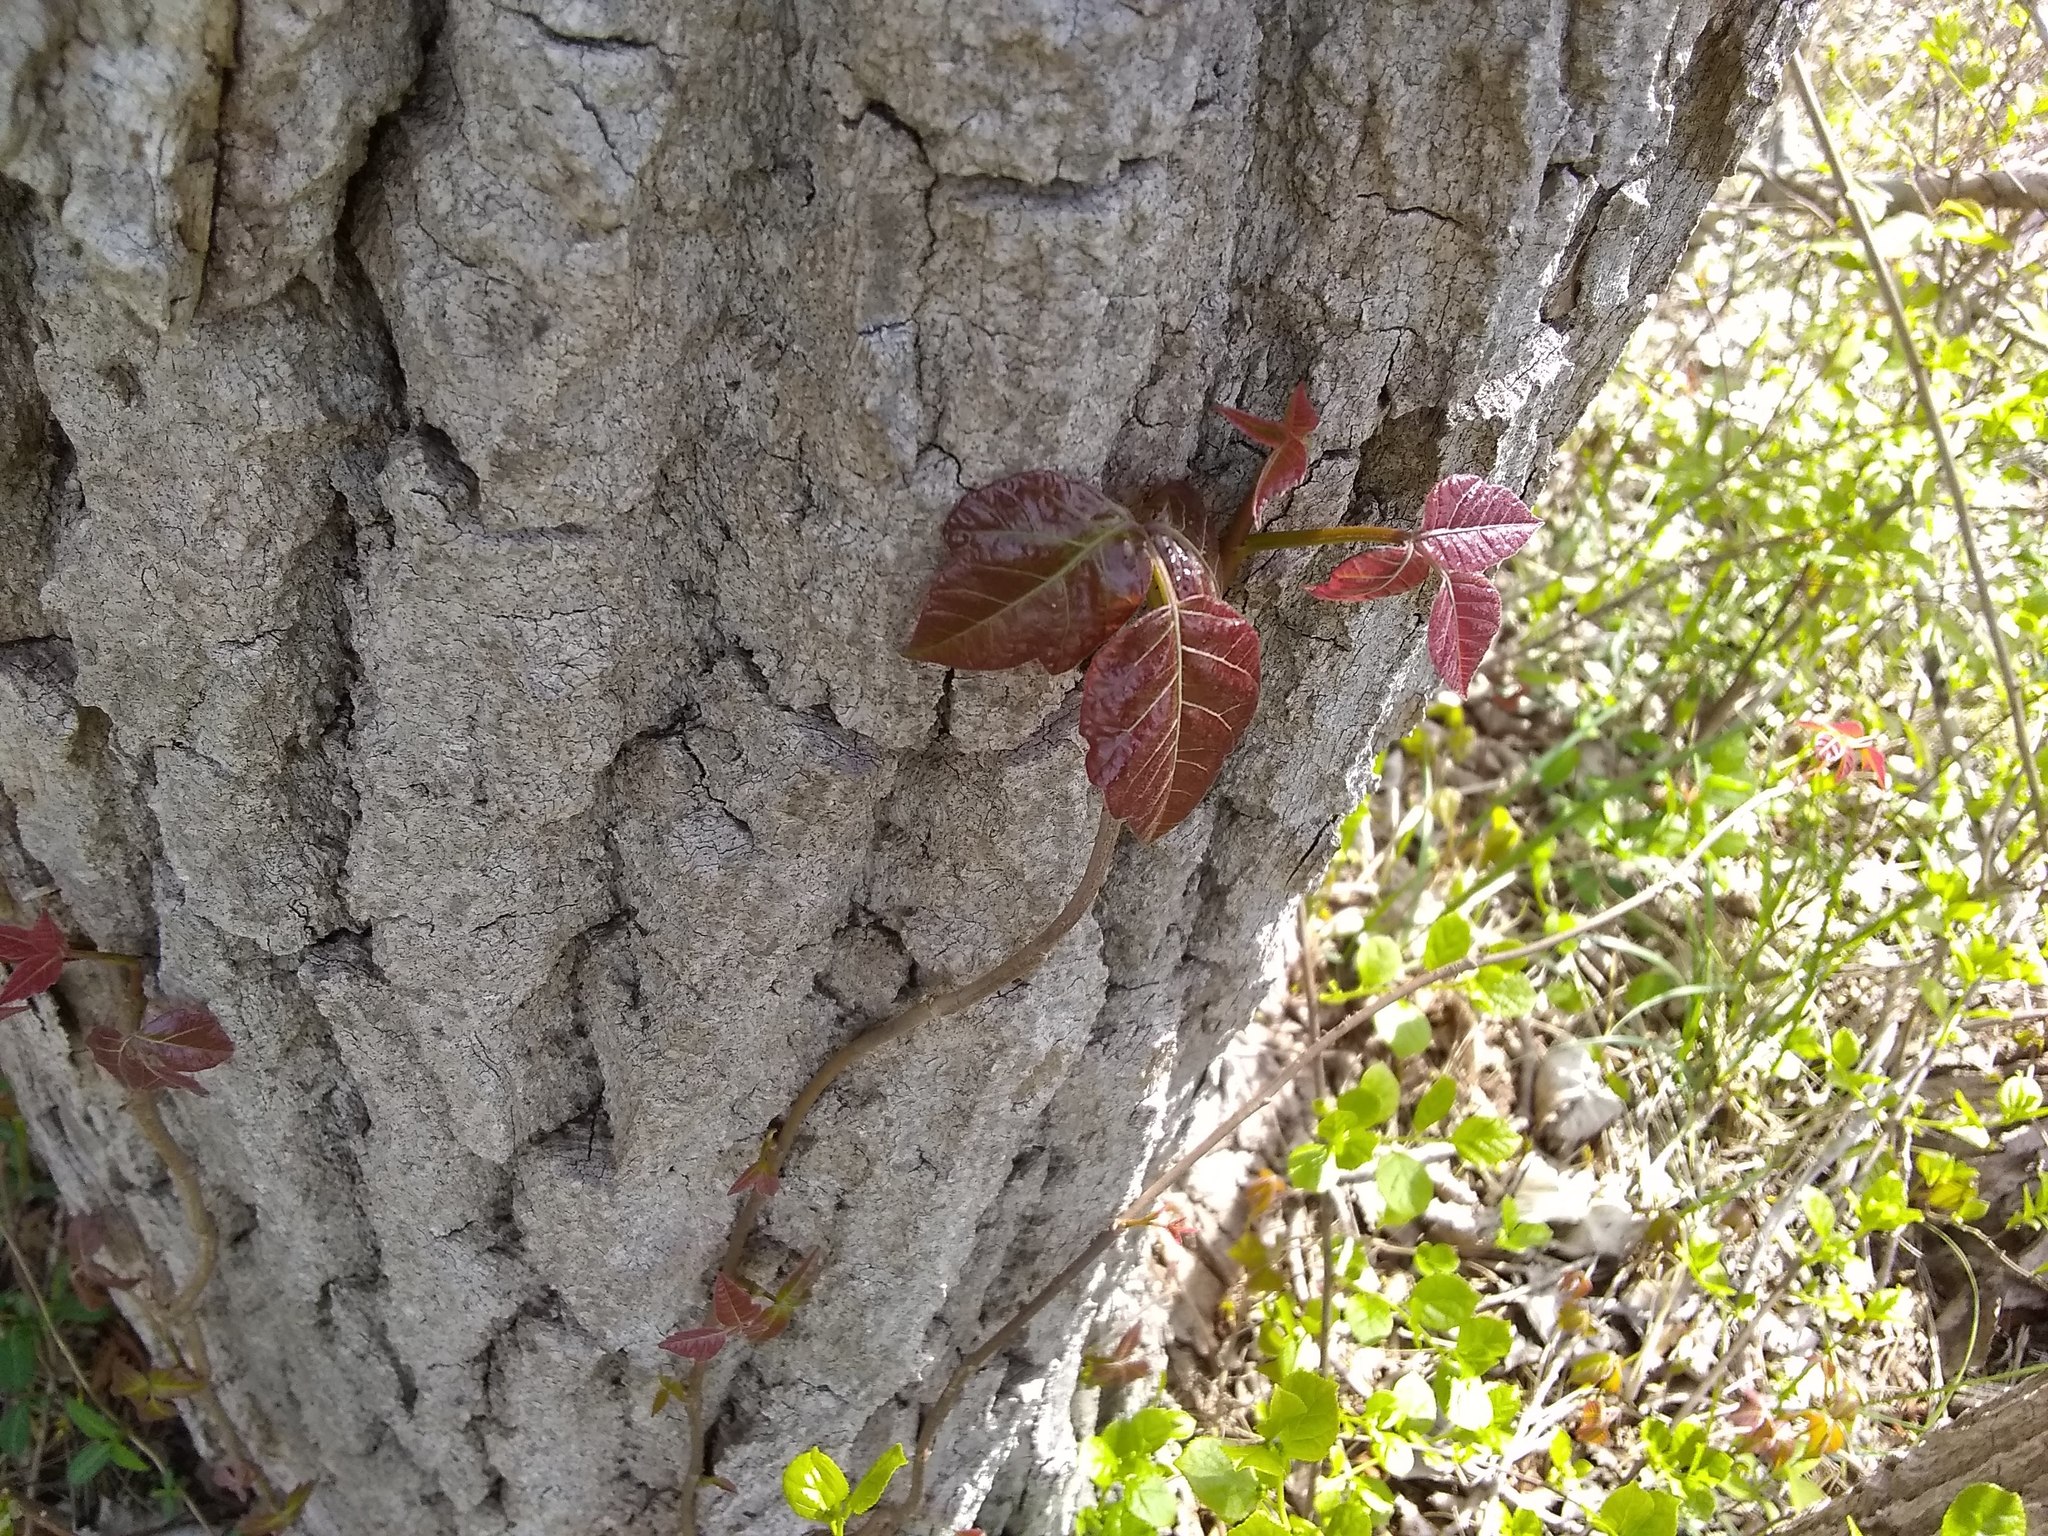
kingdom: Plantae
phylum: Tracheophyta
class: Magnoliopsida
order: Sapindales
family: Anacardiaceae
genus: Toxicodendron
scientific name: Toxicodendron radicans
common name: Poison ivy
